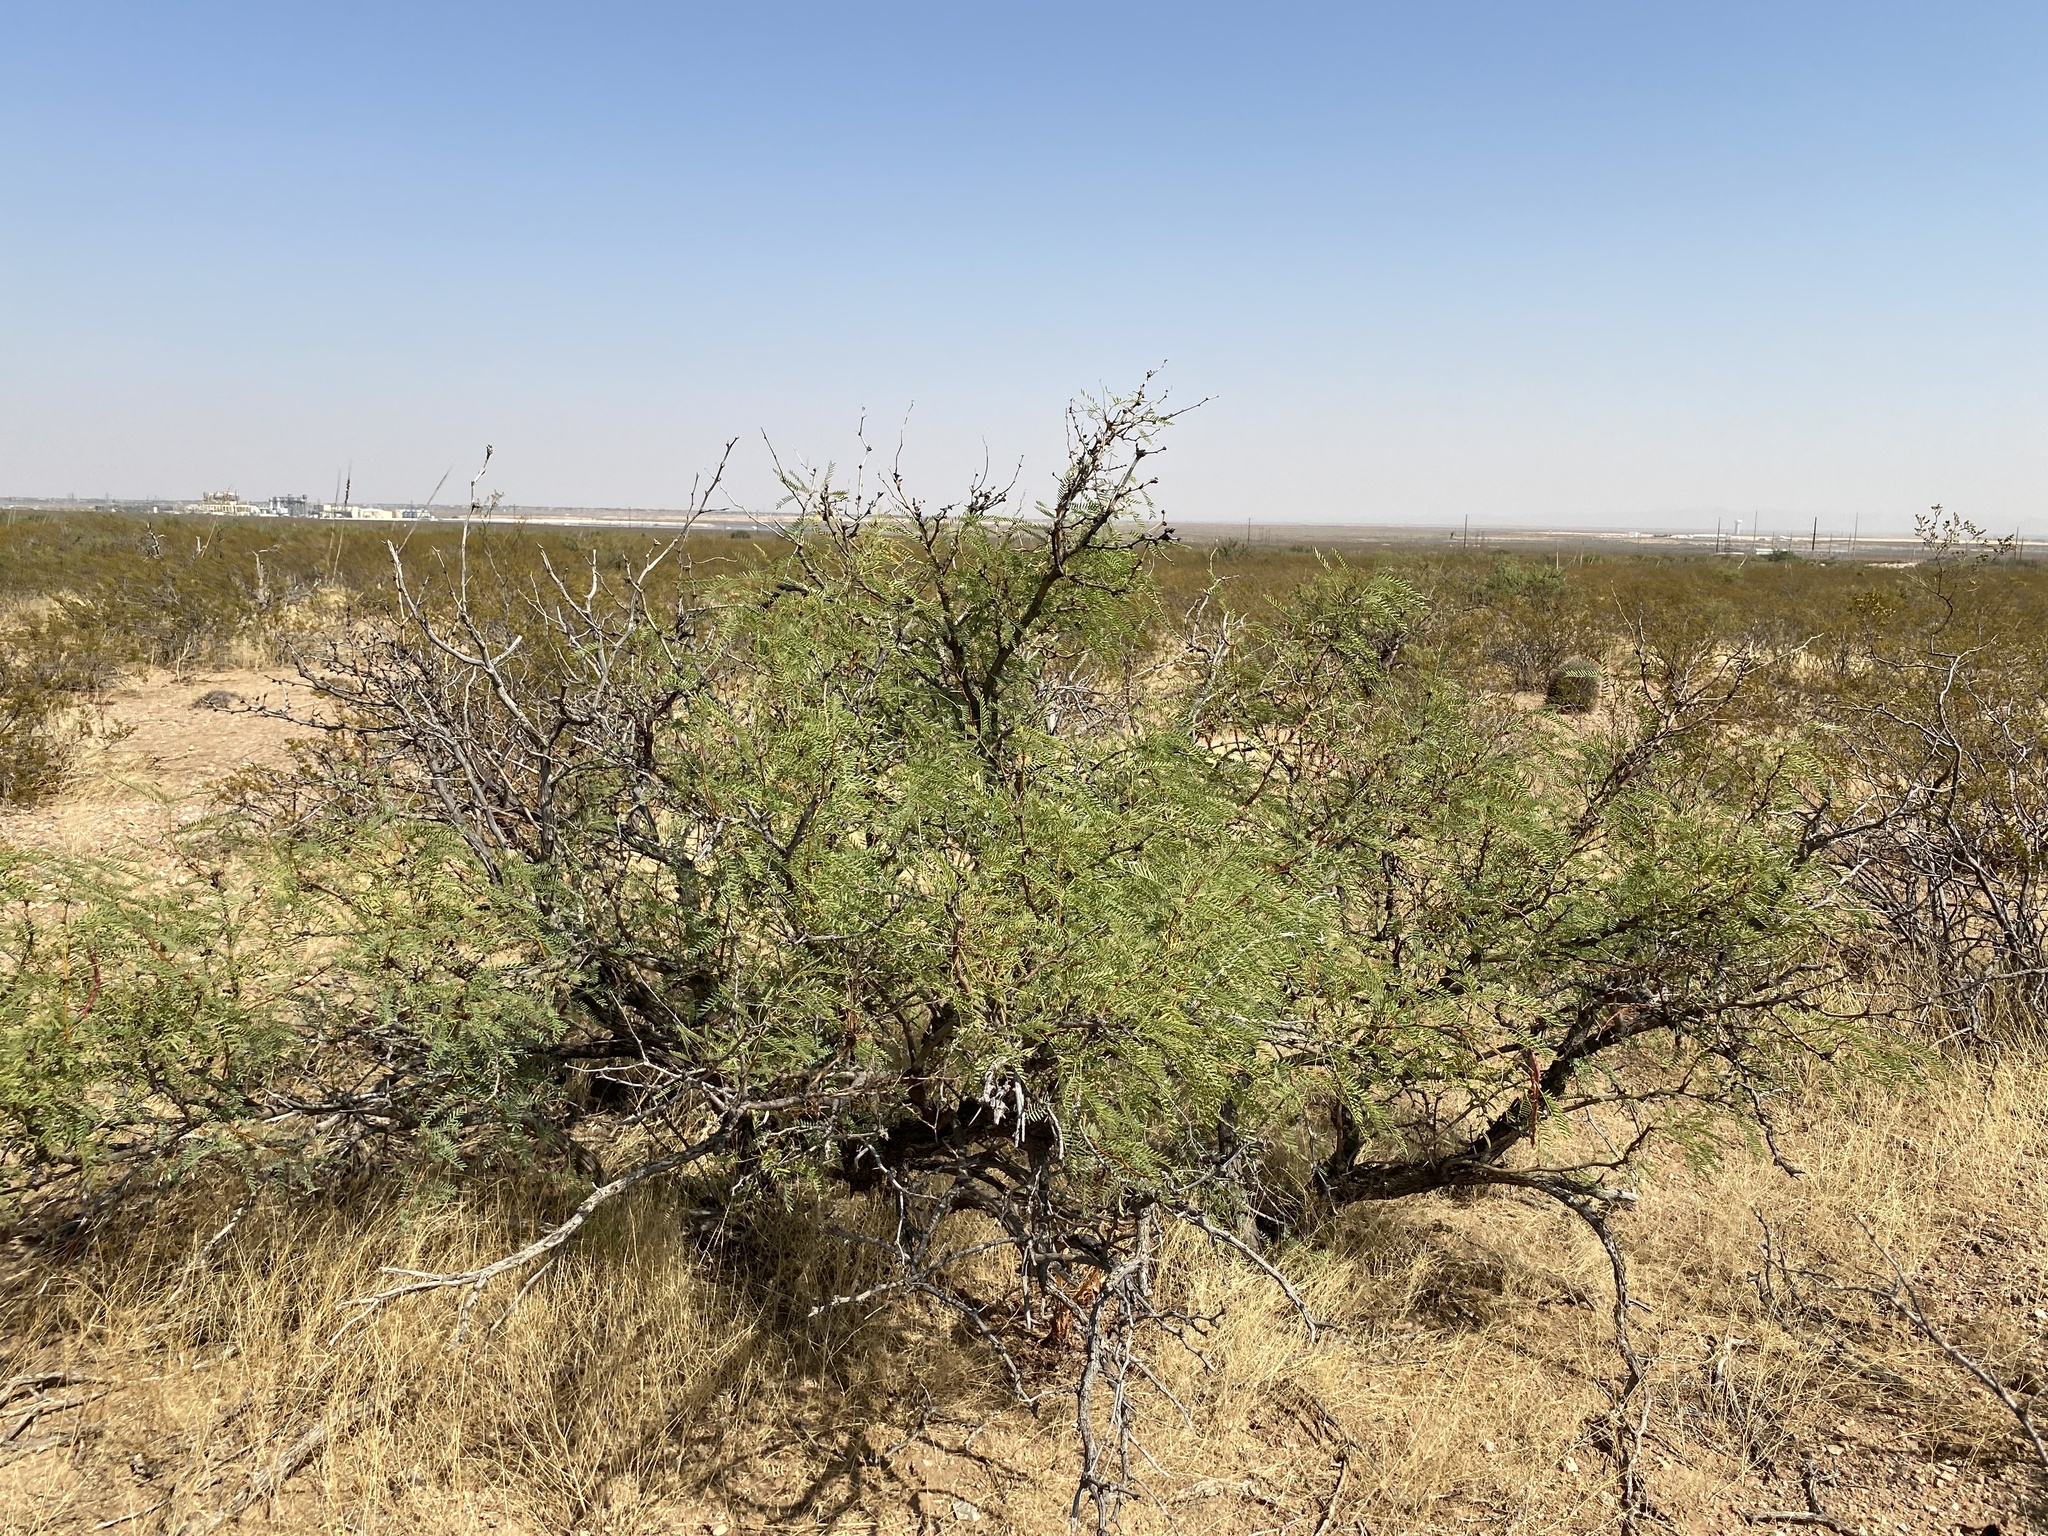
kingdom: Plantae
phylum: Tracheophyta
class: Magnoliopsida
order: Fabales
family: Fabaceae
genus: Prosopis
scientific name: Prosopis glandulosa
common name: Honey mesquite
